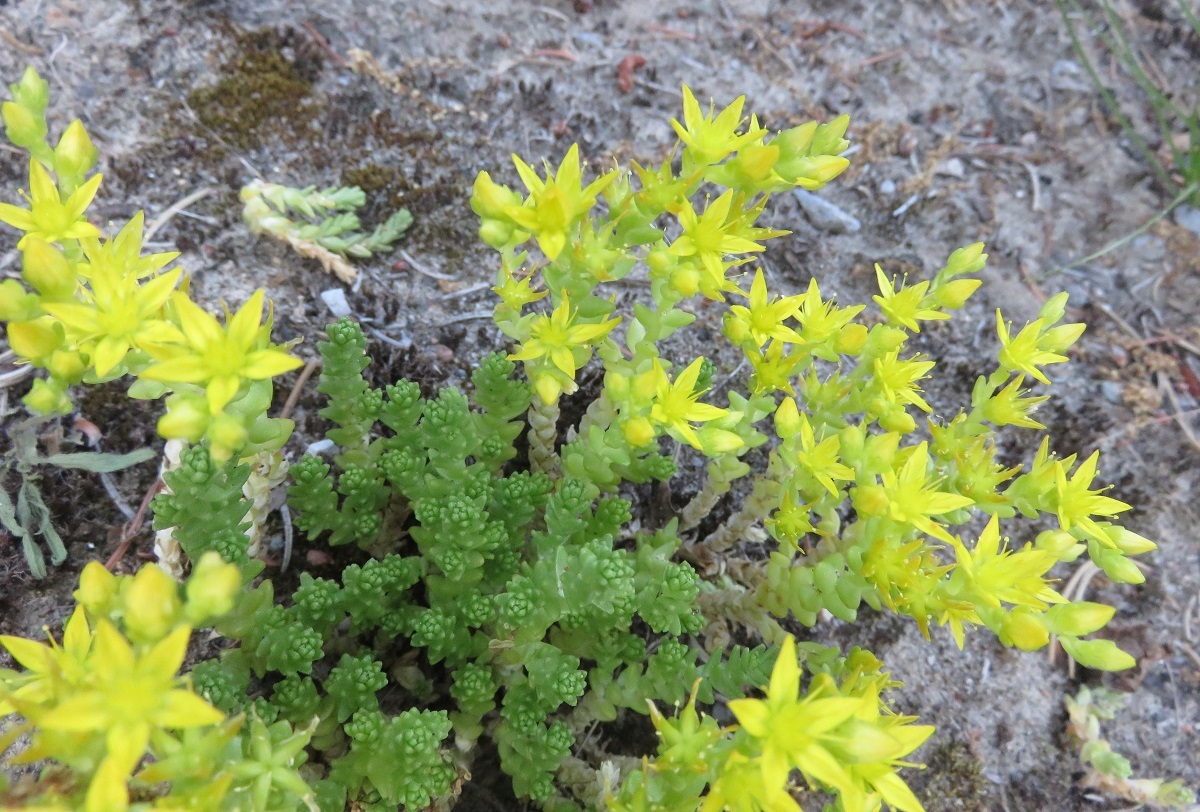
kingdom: Plantae
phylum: Tracheophyta
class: Magnoliopsida
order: Saxifragales
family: Crassulaceae
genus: Sedum
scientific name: Sedum acre
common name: Biting stonecrop
